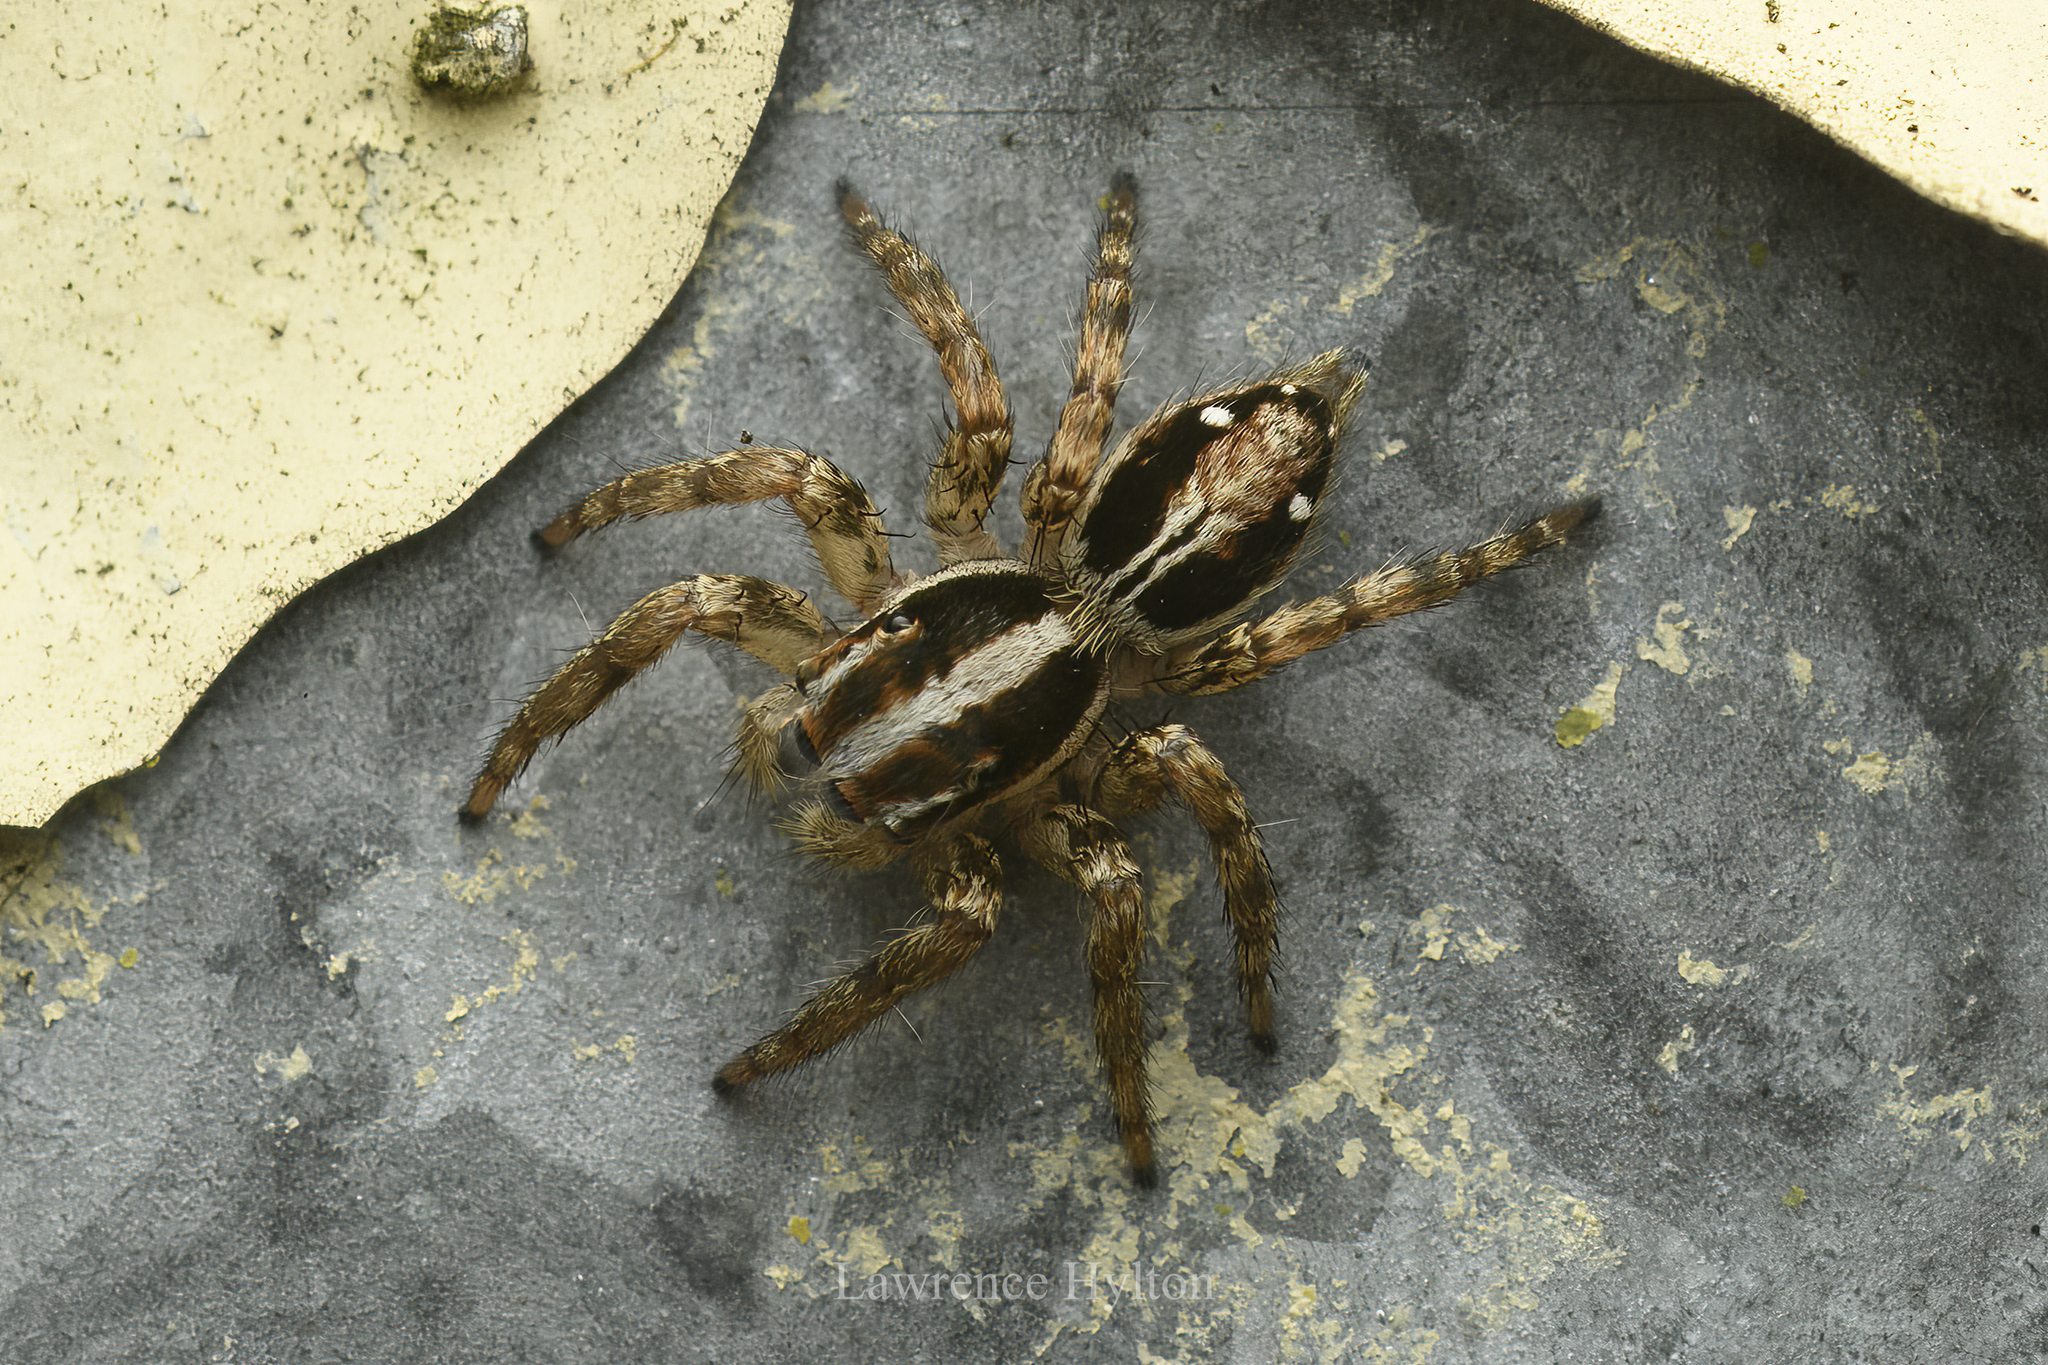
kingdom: Animalia
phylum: Arthropoda
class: Arachnida
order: Araneae
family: Salticidae
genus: Plexippus
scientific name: Plexippus paykulli
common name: Pantropical jumper
